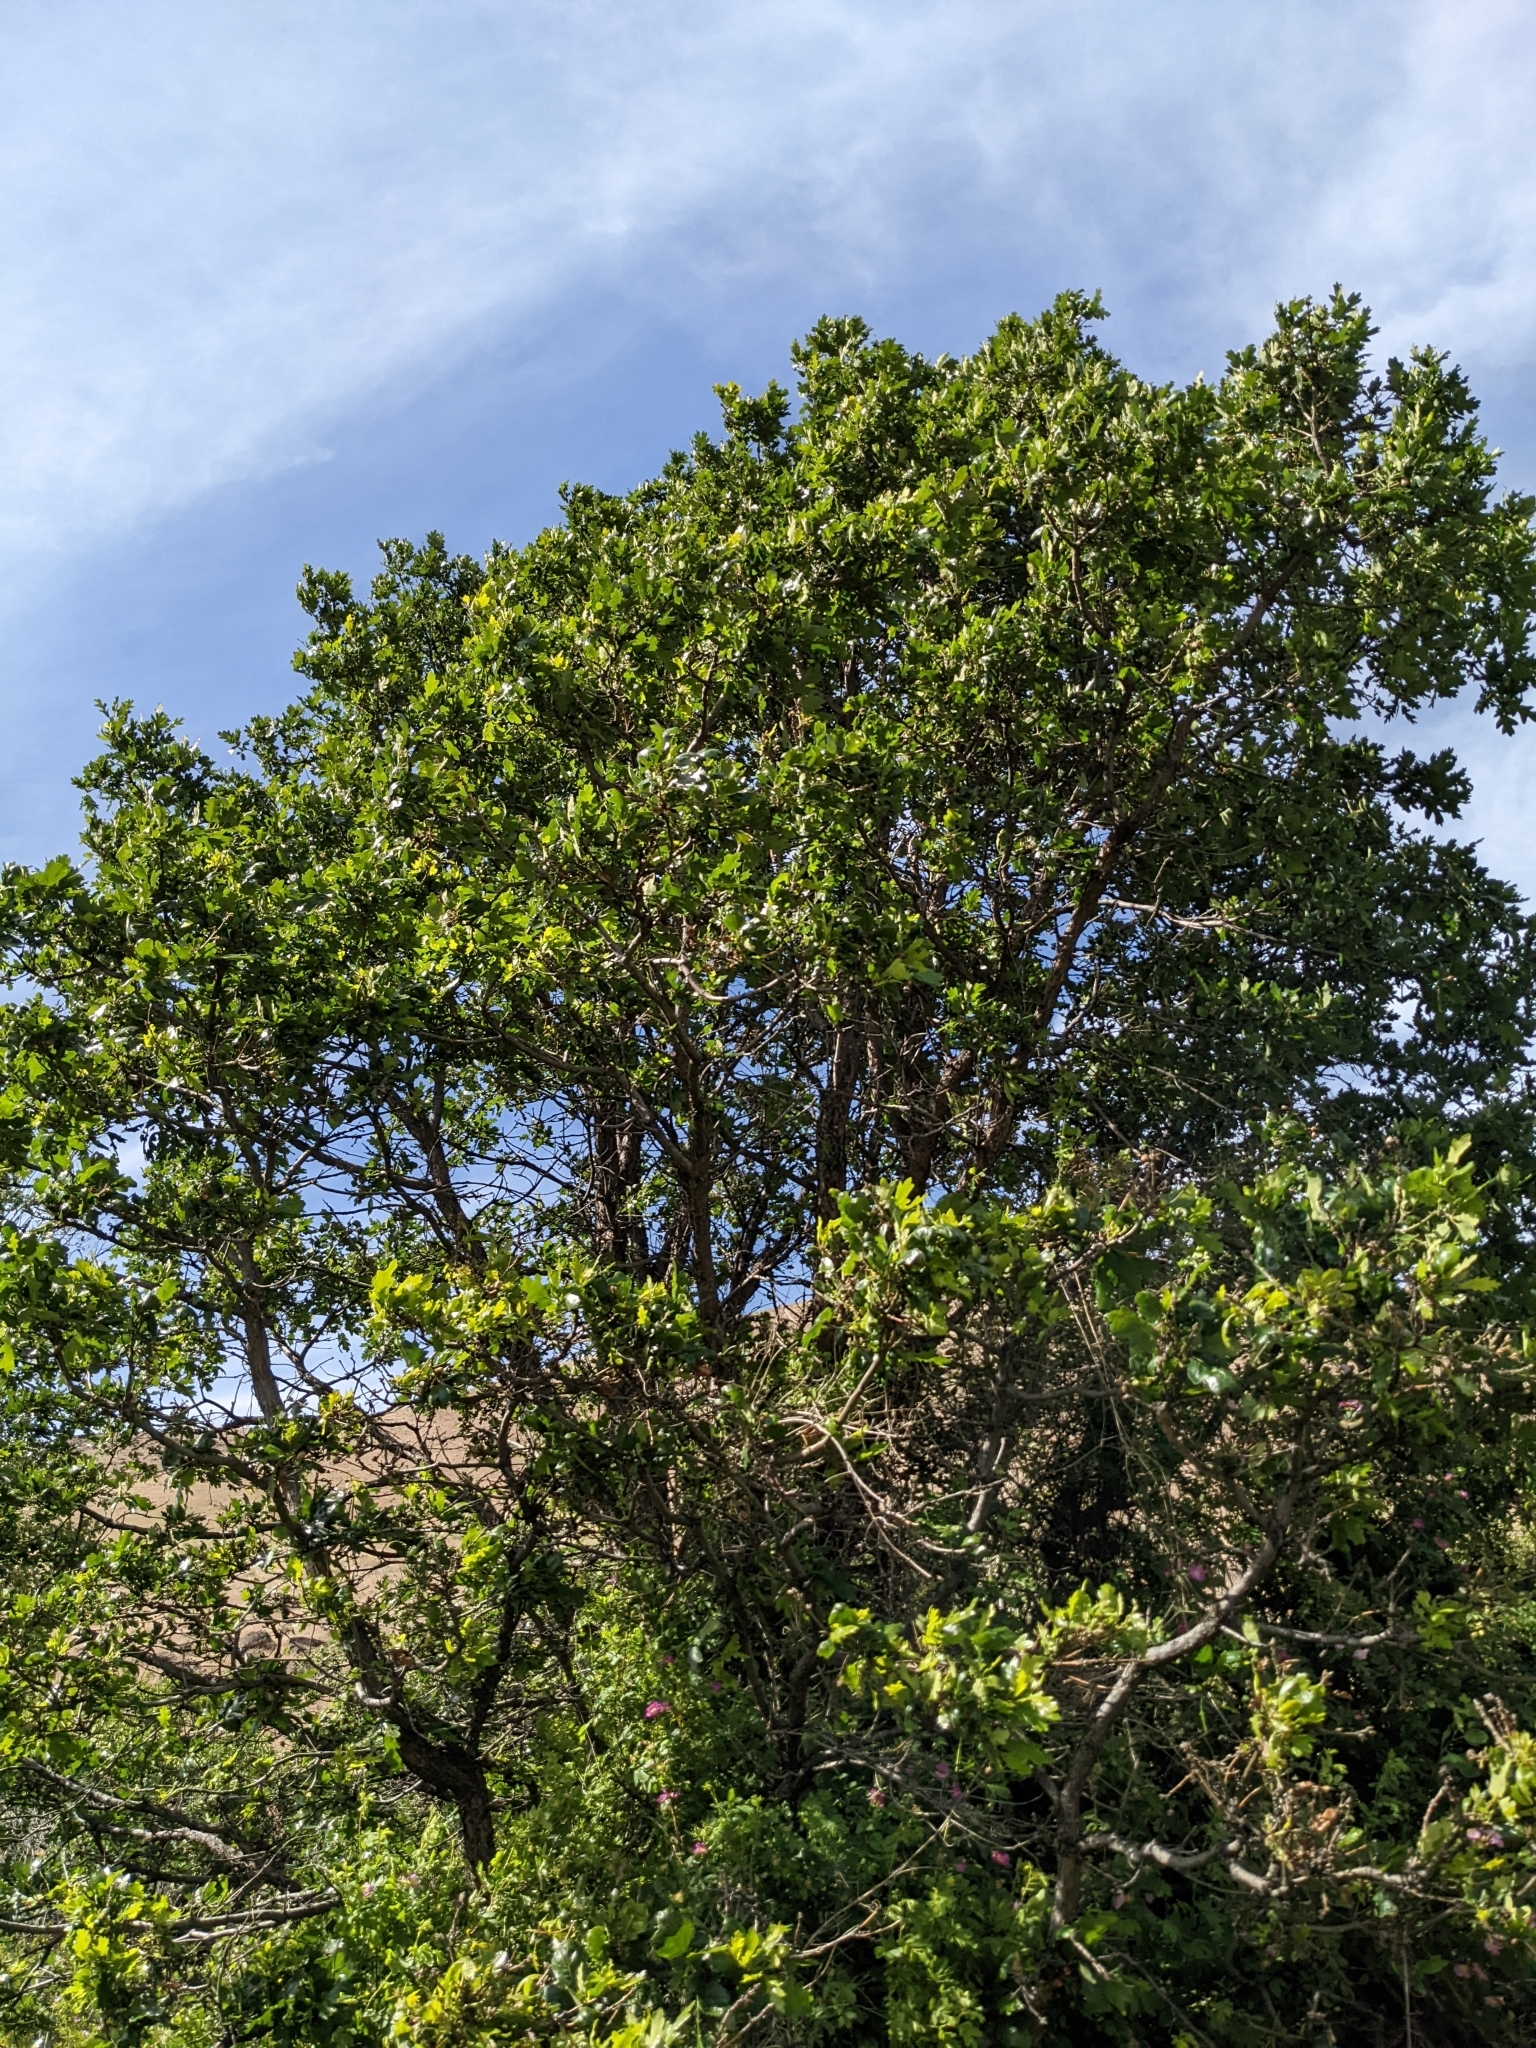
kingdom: Plantae
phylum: Tracheophyta
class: Magnoliopsida
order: Fagales
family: Fagaceae
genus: Quercus
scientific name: Quercus garryana
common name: Garry oak
